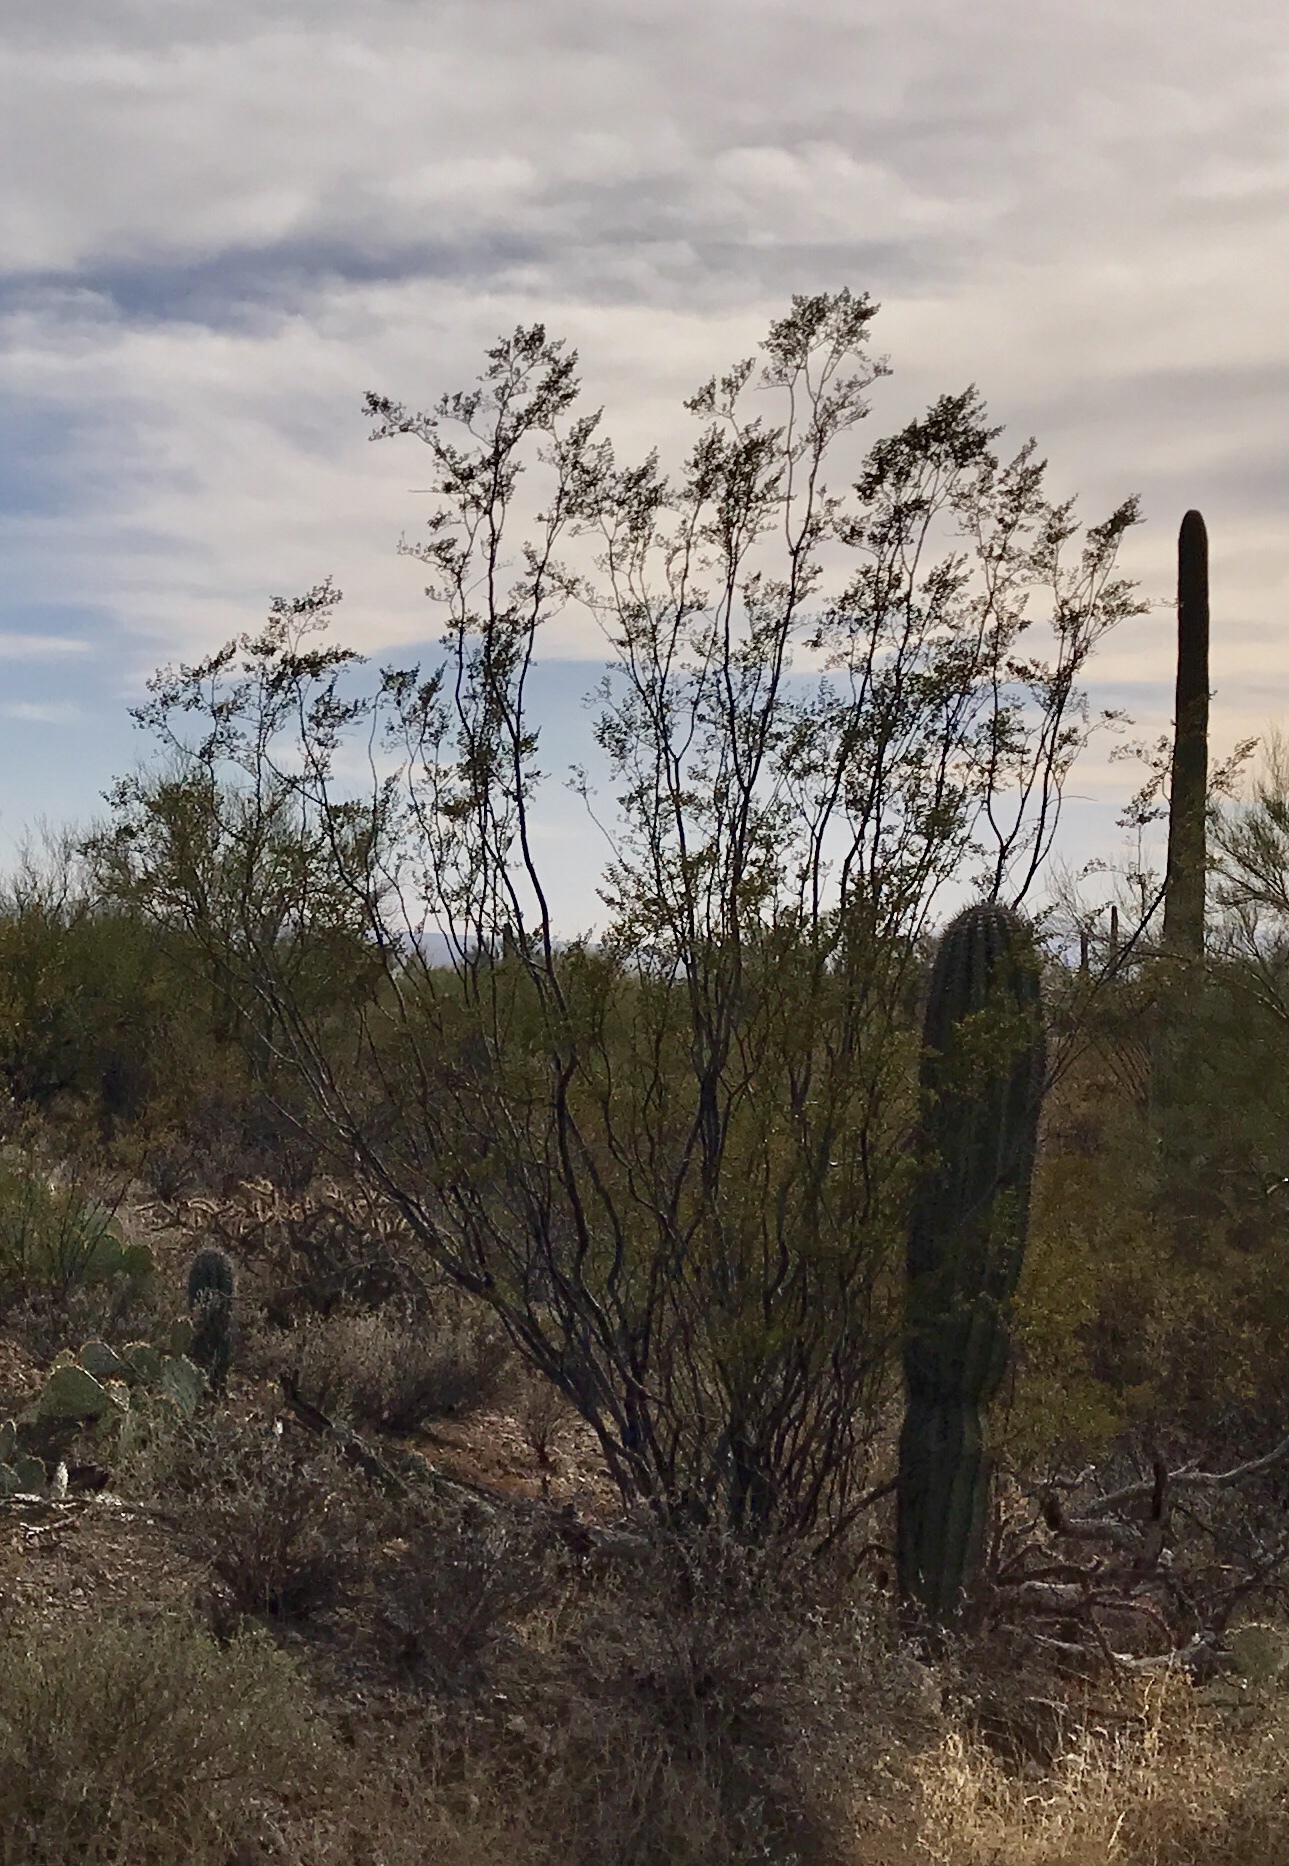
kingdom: Plantae
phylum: Tracheophyta
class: Magnoliopsida
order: Zygophyllales
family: Zygophyllaceae
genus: Larrea
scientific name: Larrea tridentata
